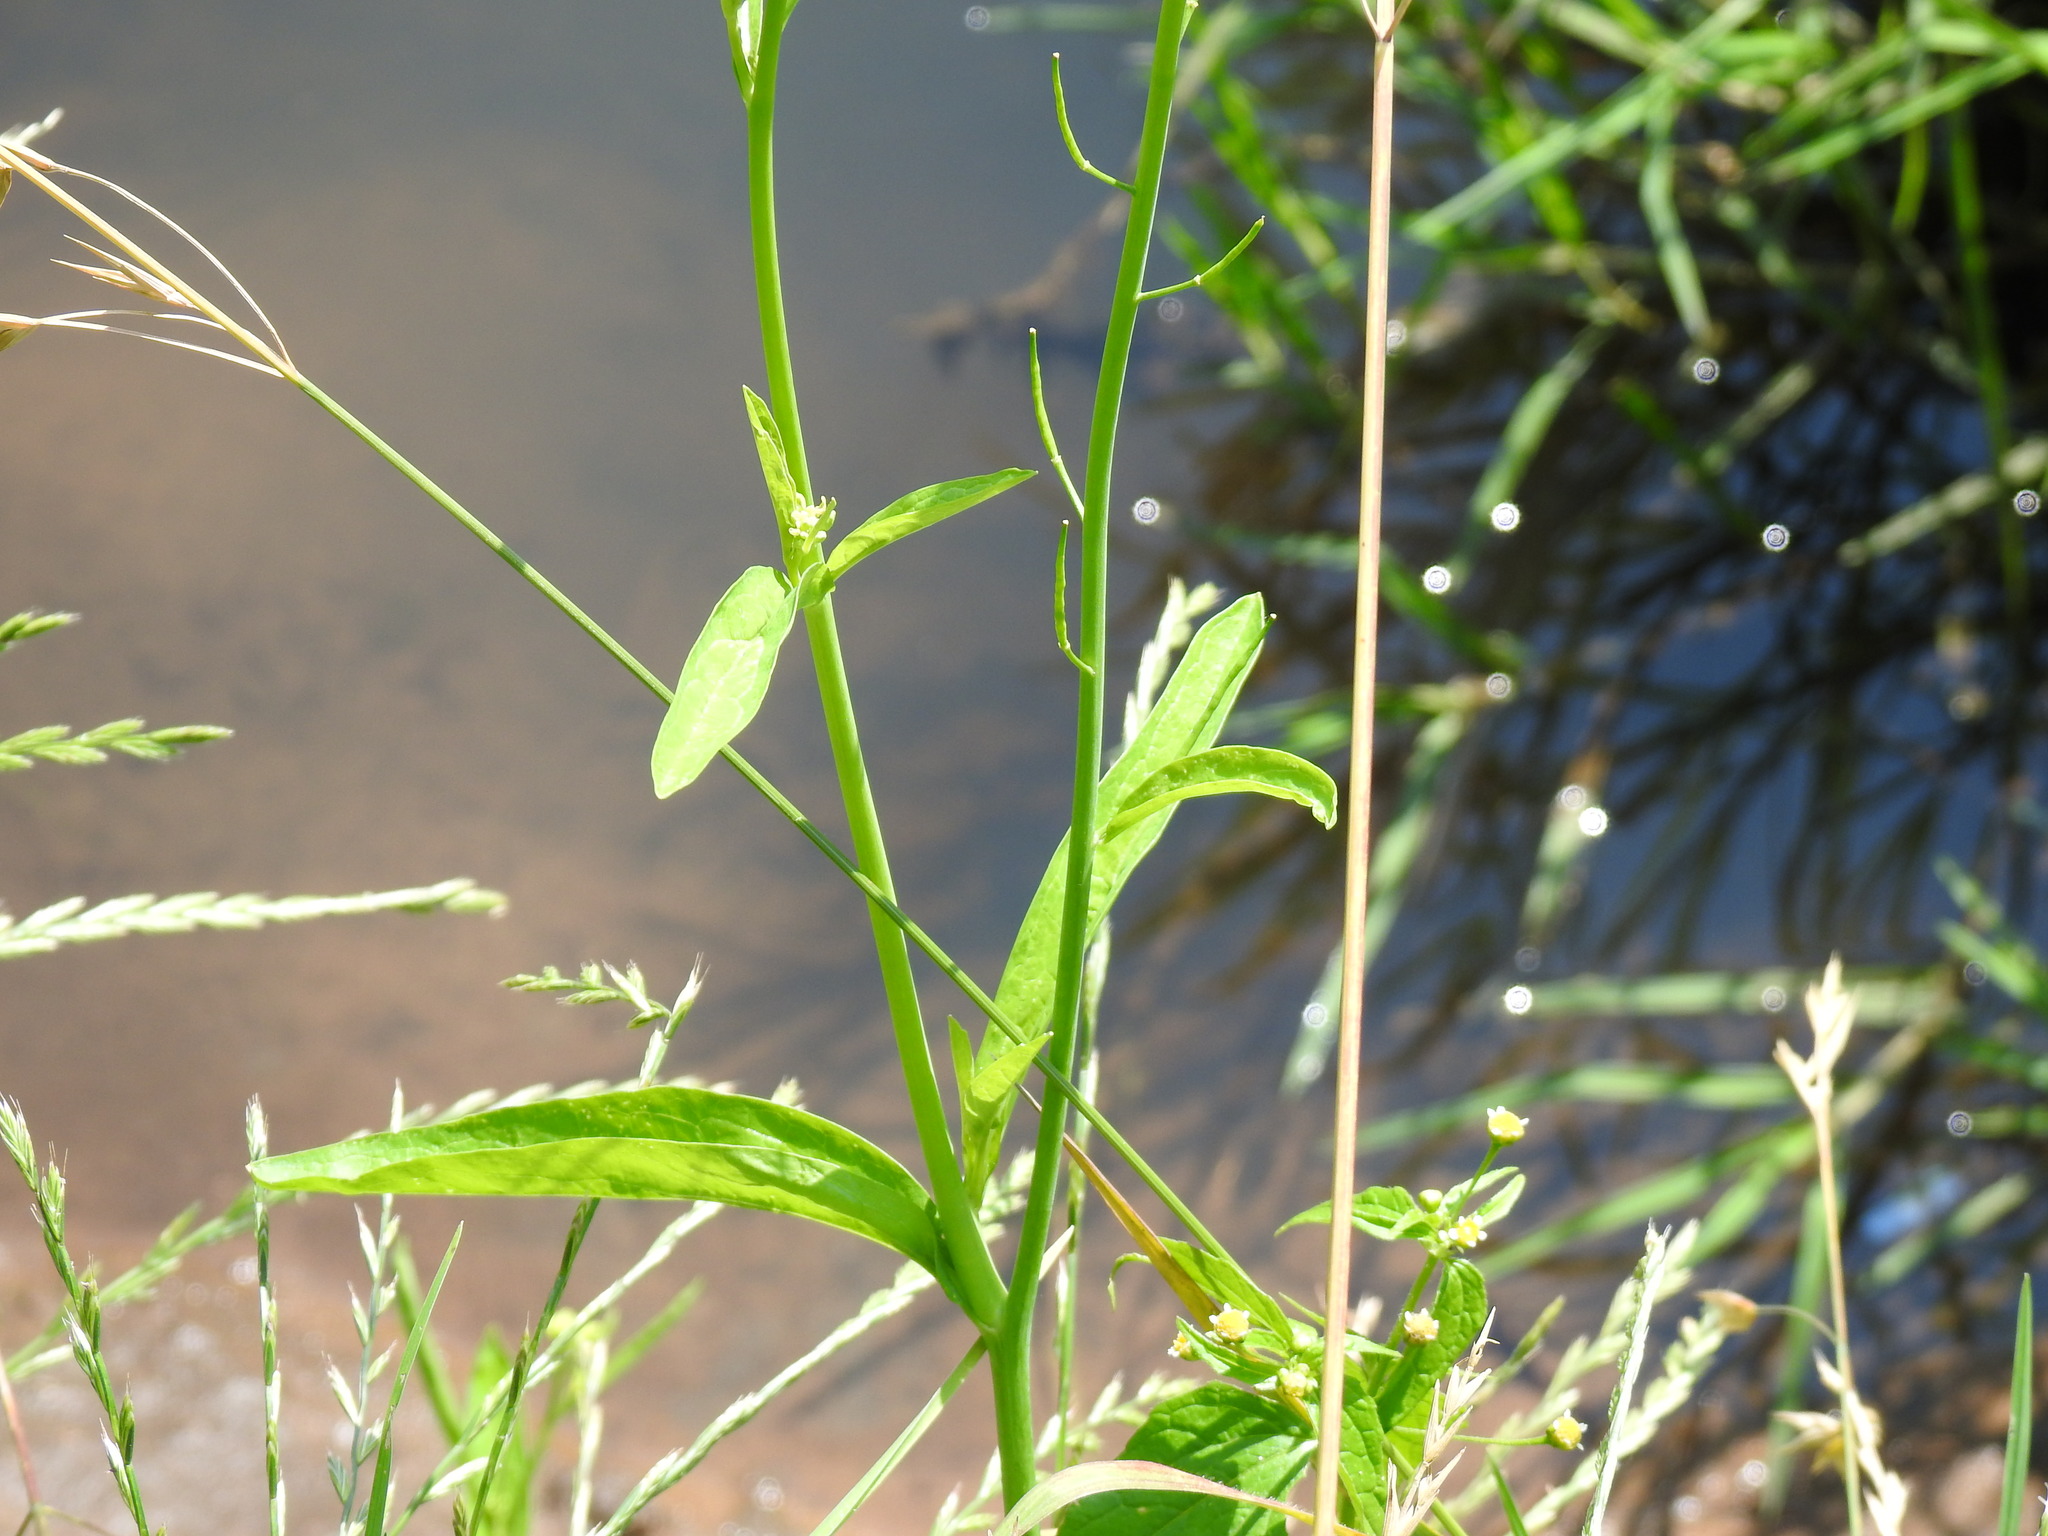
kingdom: Plantae
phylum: Tracheophyta
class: Magnoliopsida
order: Brassicales
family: Brassicaceae
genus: Brassica
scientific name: Brassica juncea
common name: Brown mustard
